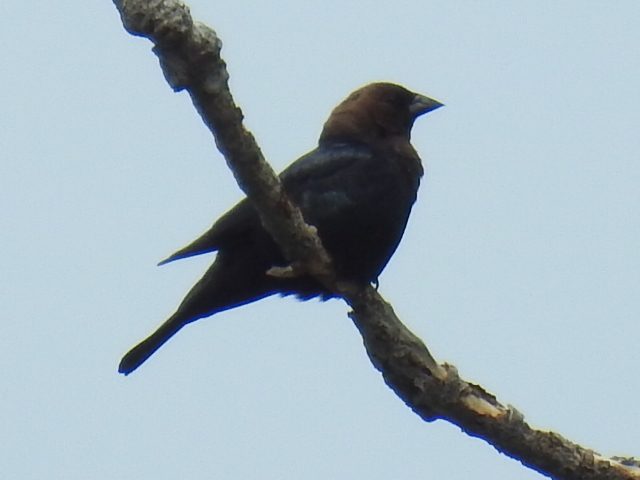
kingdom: Animalia
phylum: Chordata
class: Aves
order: Passeriformes
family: Icteridae
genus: Molothrus
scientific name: Molothrus ater
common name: Brown-headed cowbird
